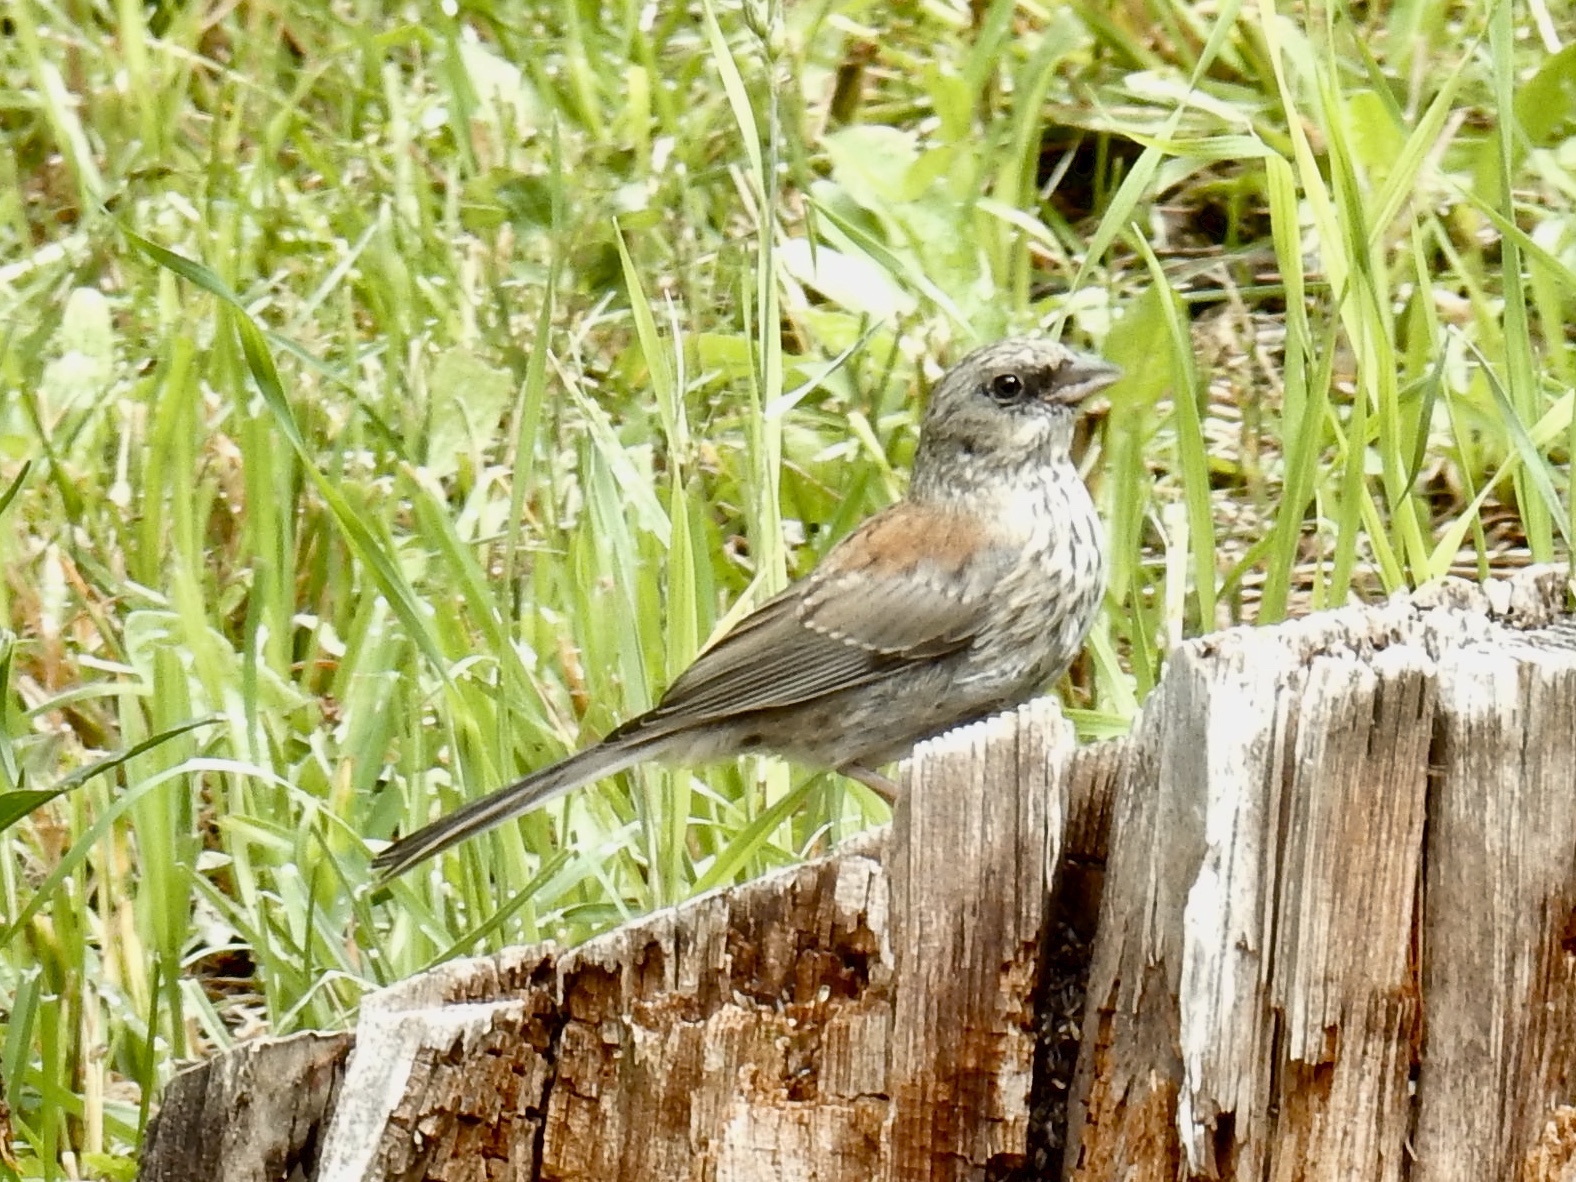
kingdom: Animalia
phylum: Chordata
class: Aves
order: Passeriformes
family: Passerellidae
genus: Junco
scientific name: Junco hyemalis
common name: Dark-eyed junco
